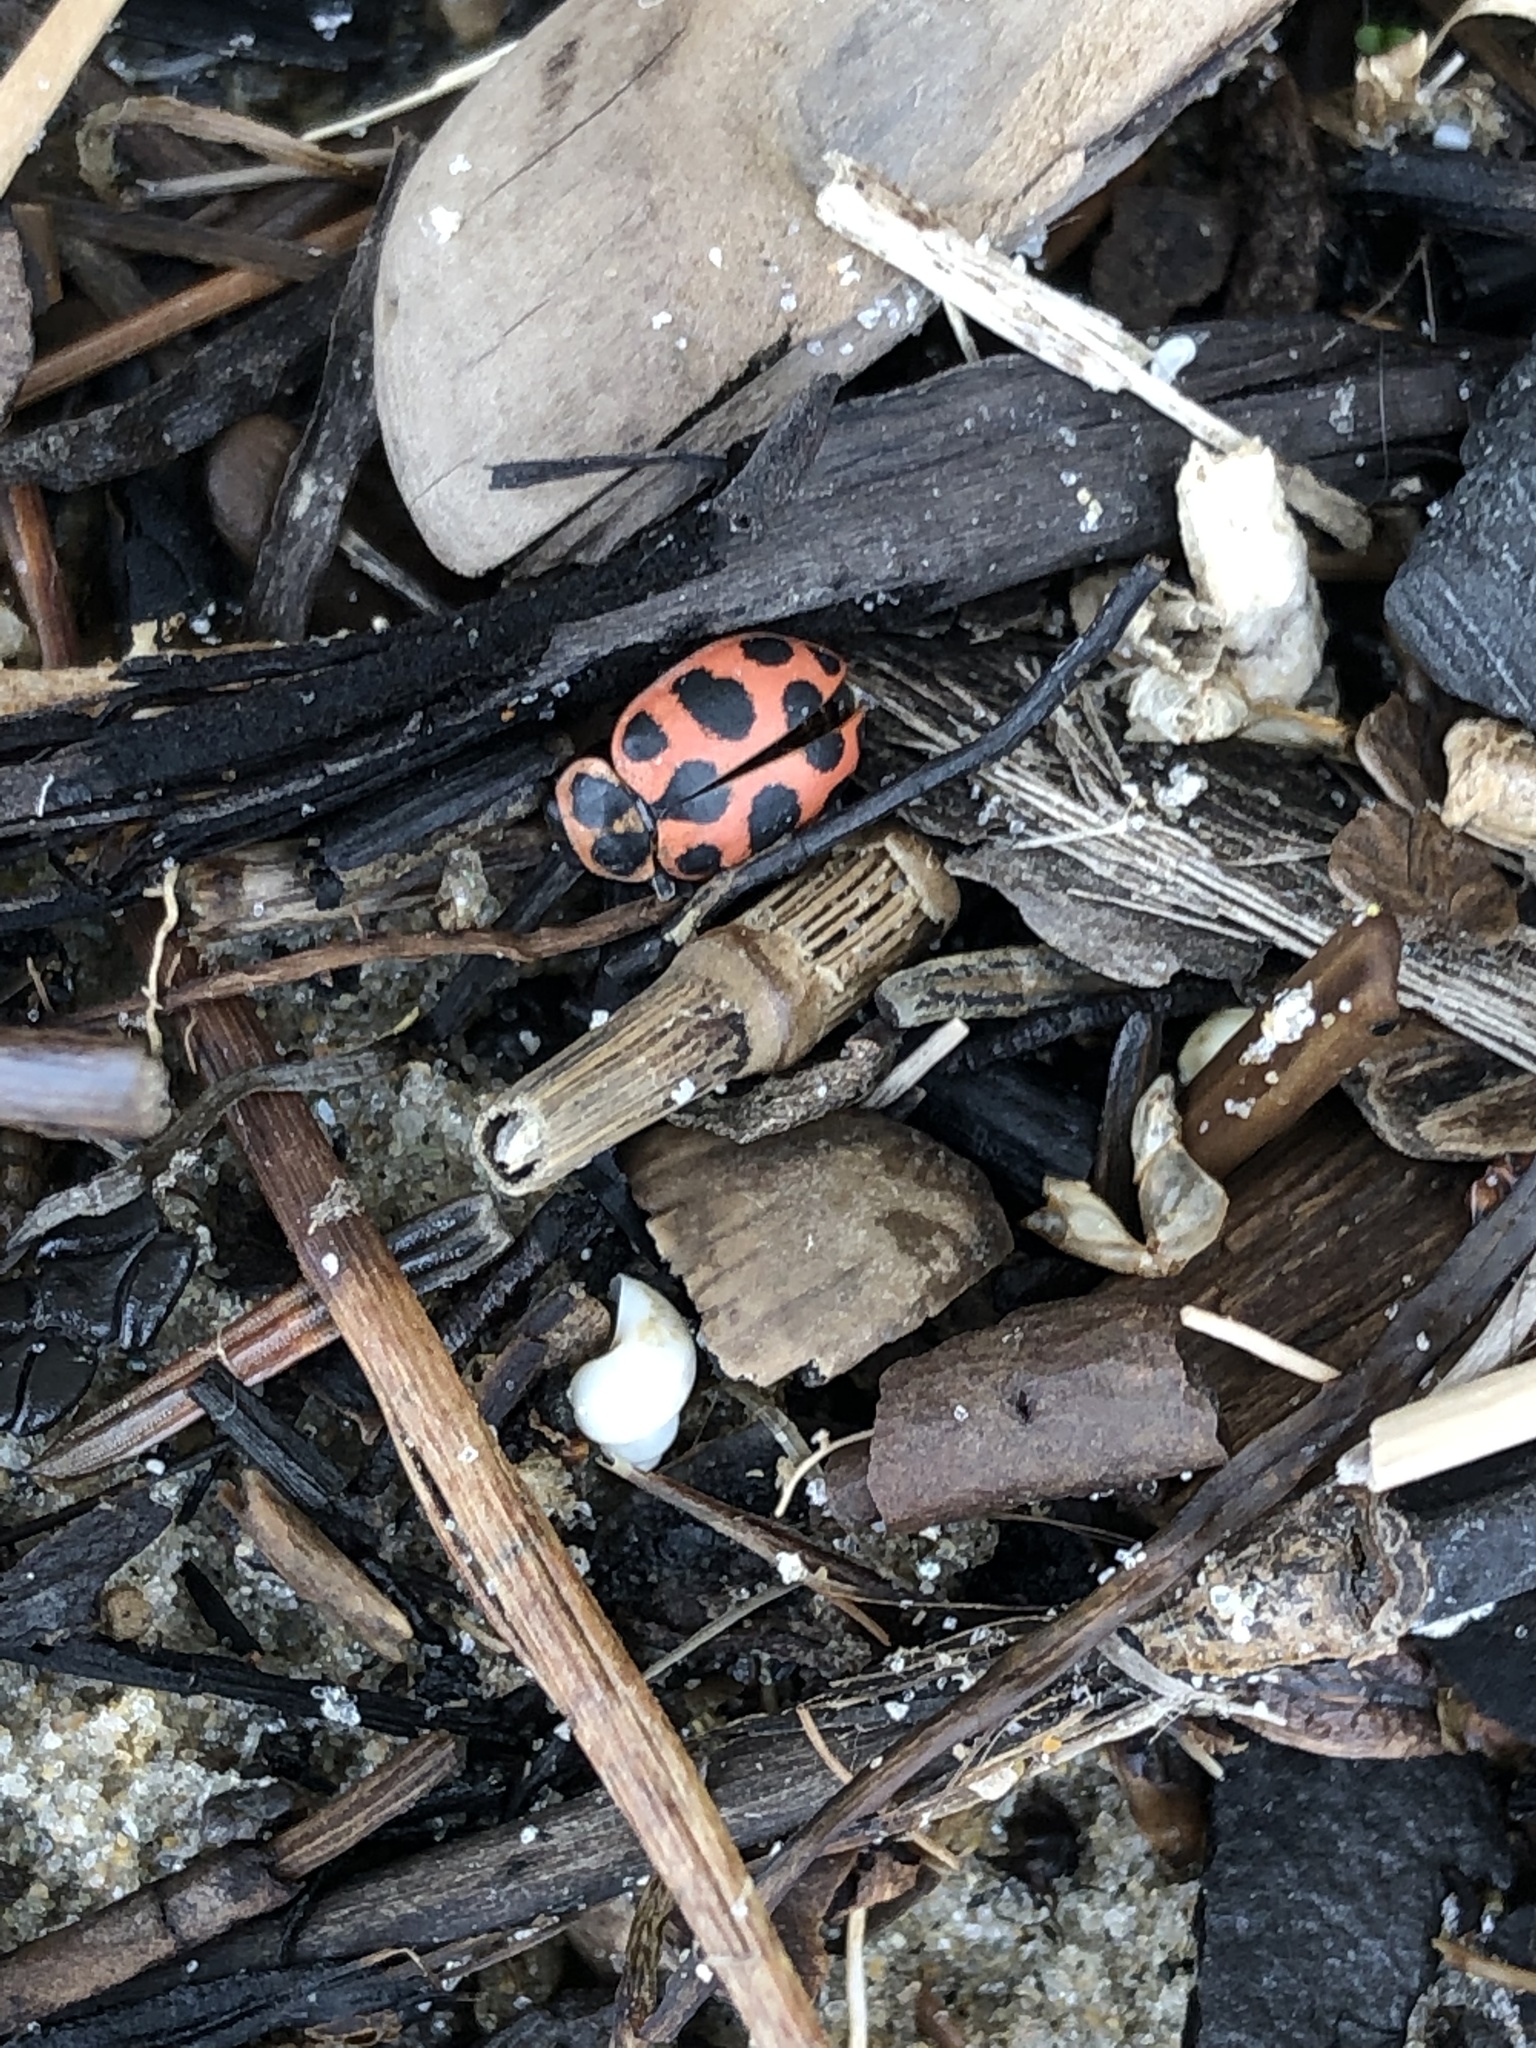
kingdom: Animalia
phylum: Arthropoda
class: Insecta
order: Coleoptera
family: Coccinellidae
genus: Coleomegilla
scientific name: Coleomegilla maculata
